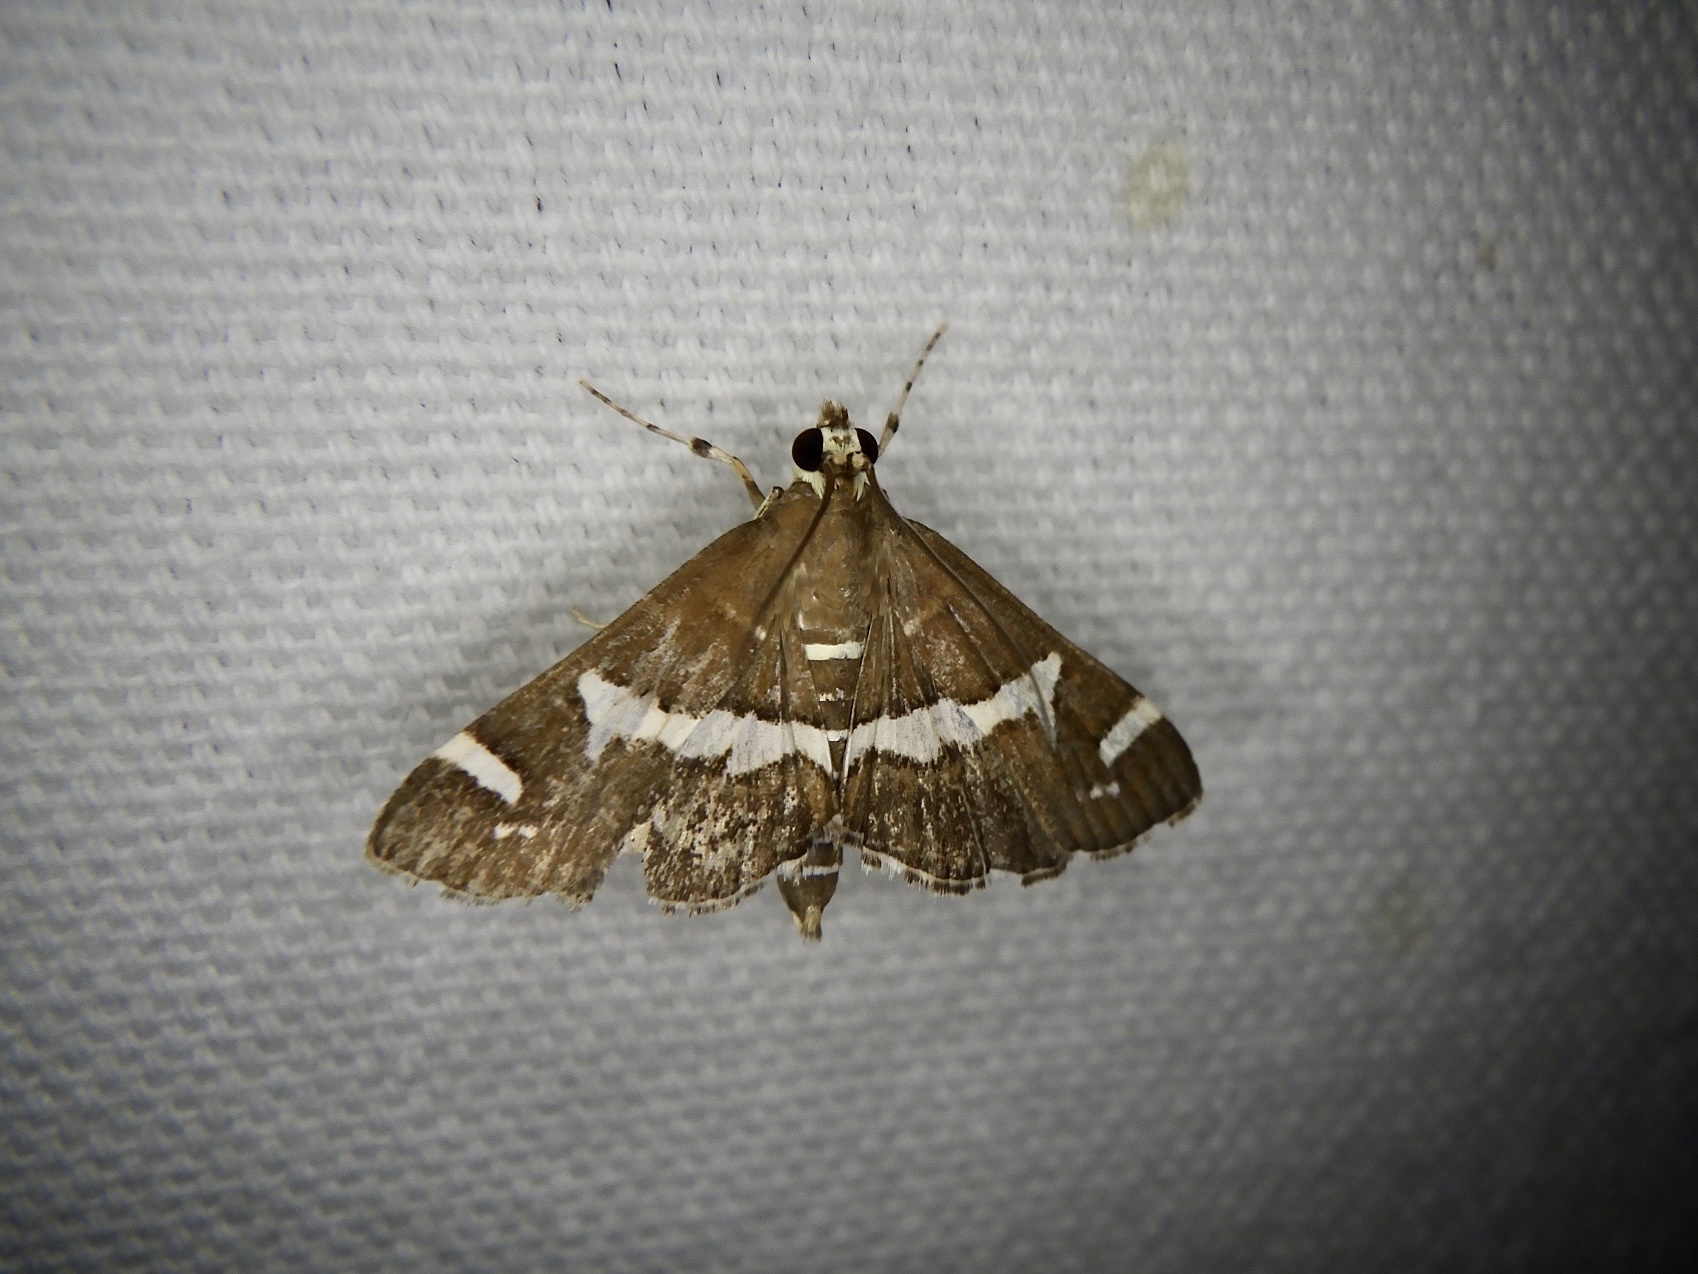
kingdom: Animalia
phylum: Arthropoda
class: Insecta
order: Lepidoptera
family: Crambidae
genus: Spoladea
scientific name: Spoladea recurvalis
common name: Beet webworm moth
